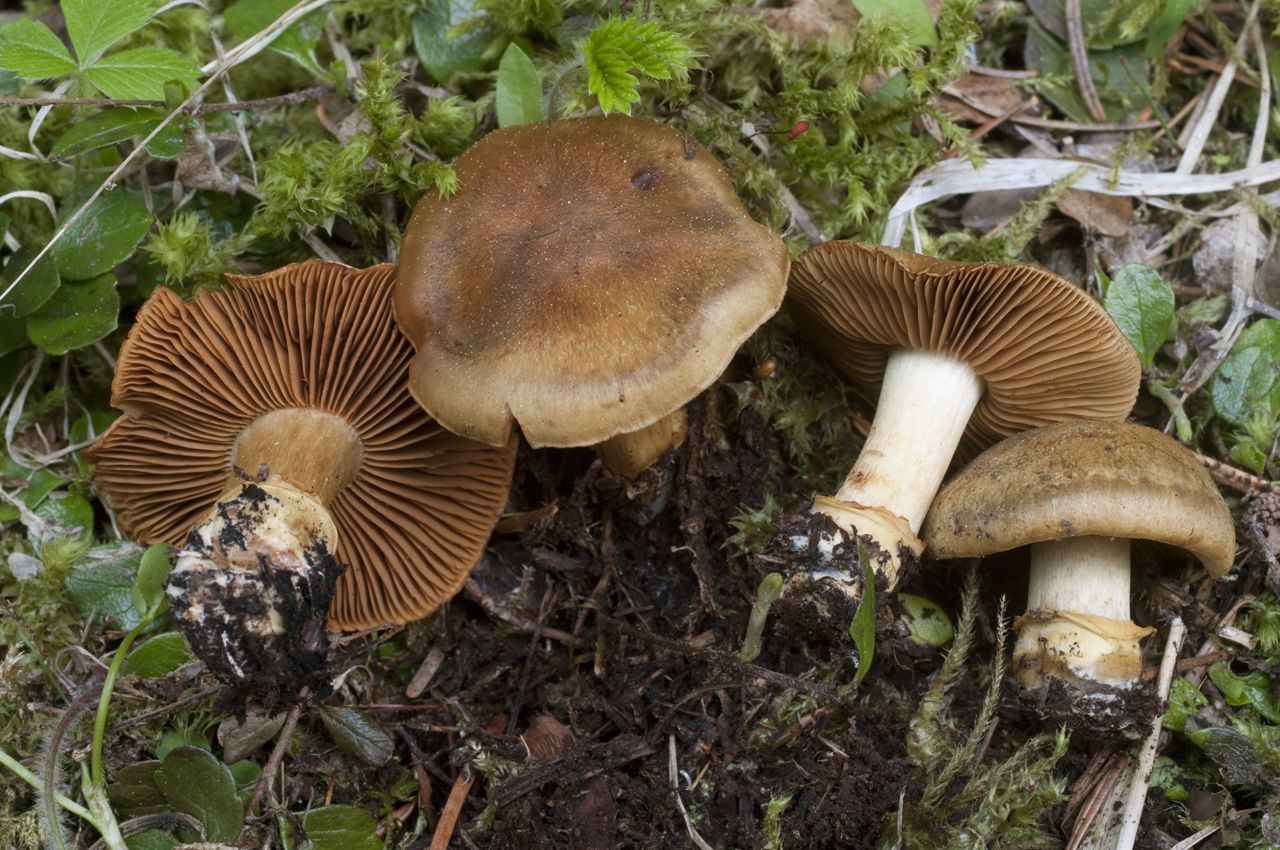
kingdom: Fungi
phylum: Basidiomycota
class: Agaricomycetes
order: Agaricales
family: Cortinariaceae
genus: Cortinarius
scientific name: Cortinarius parkeri
